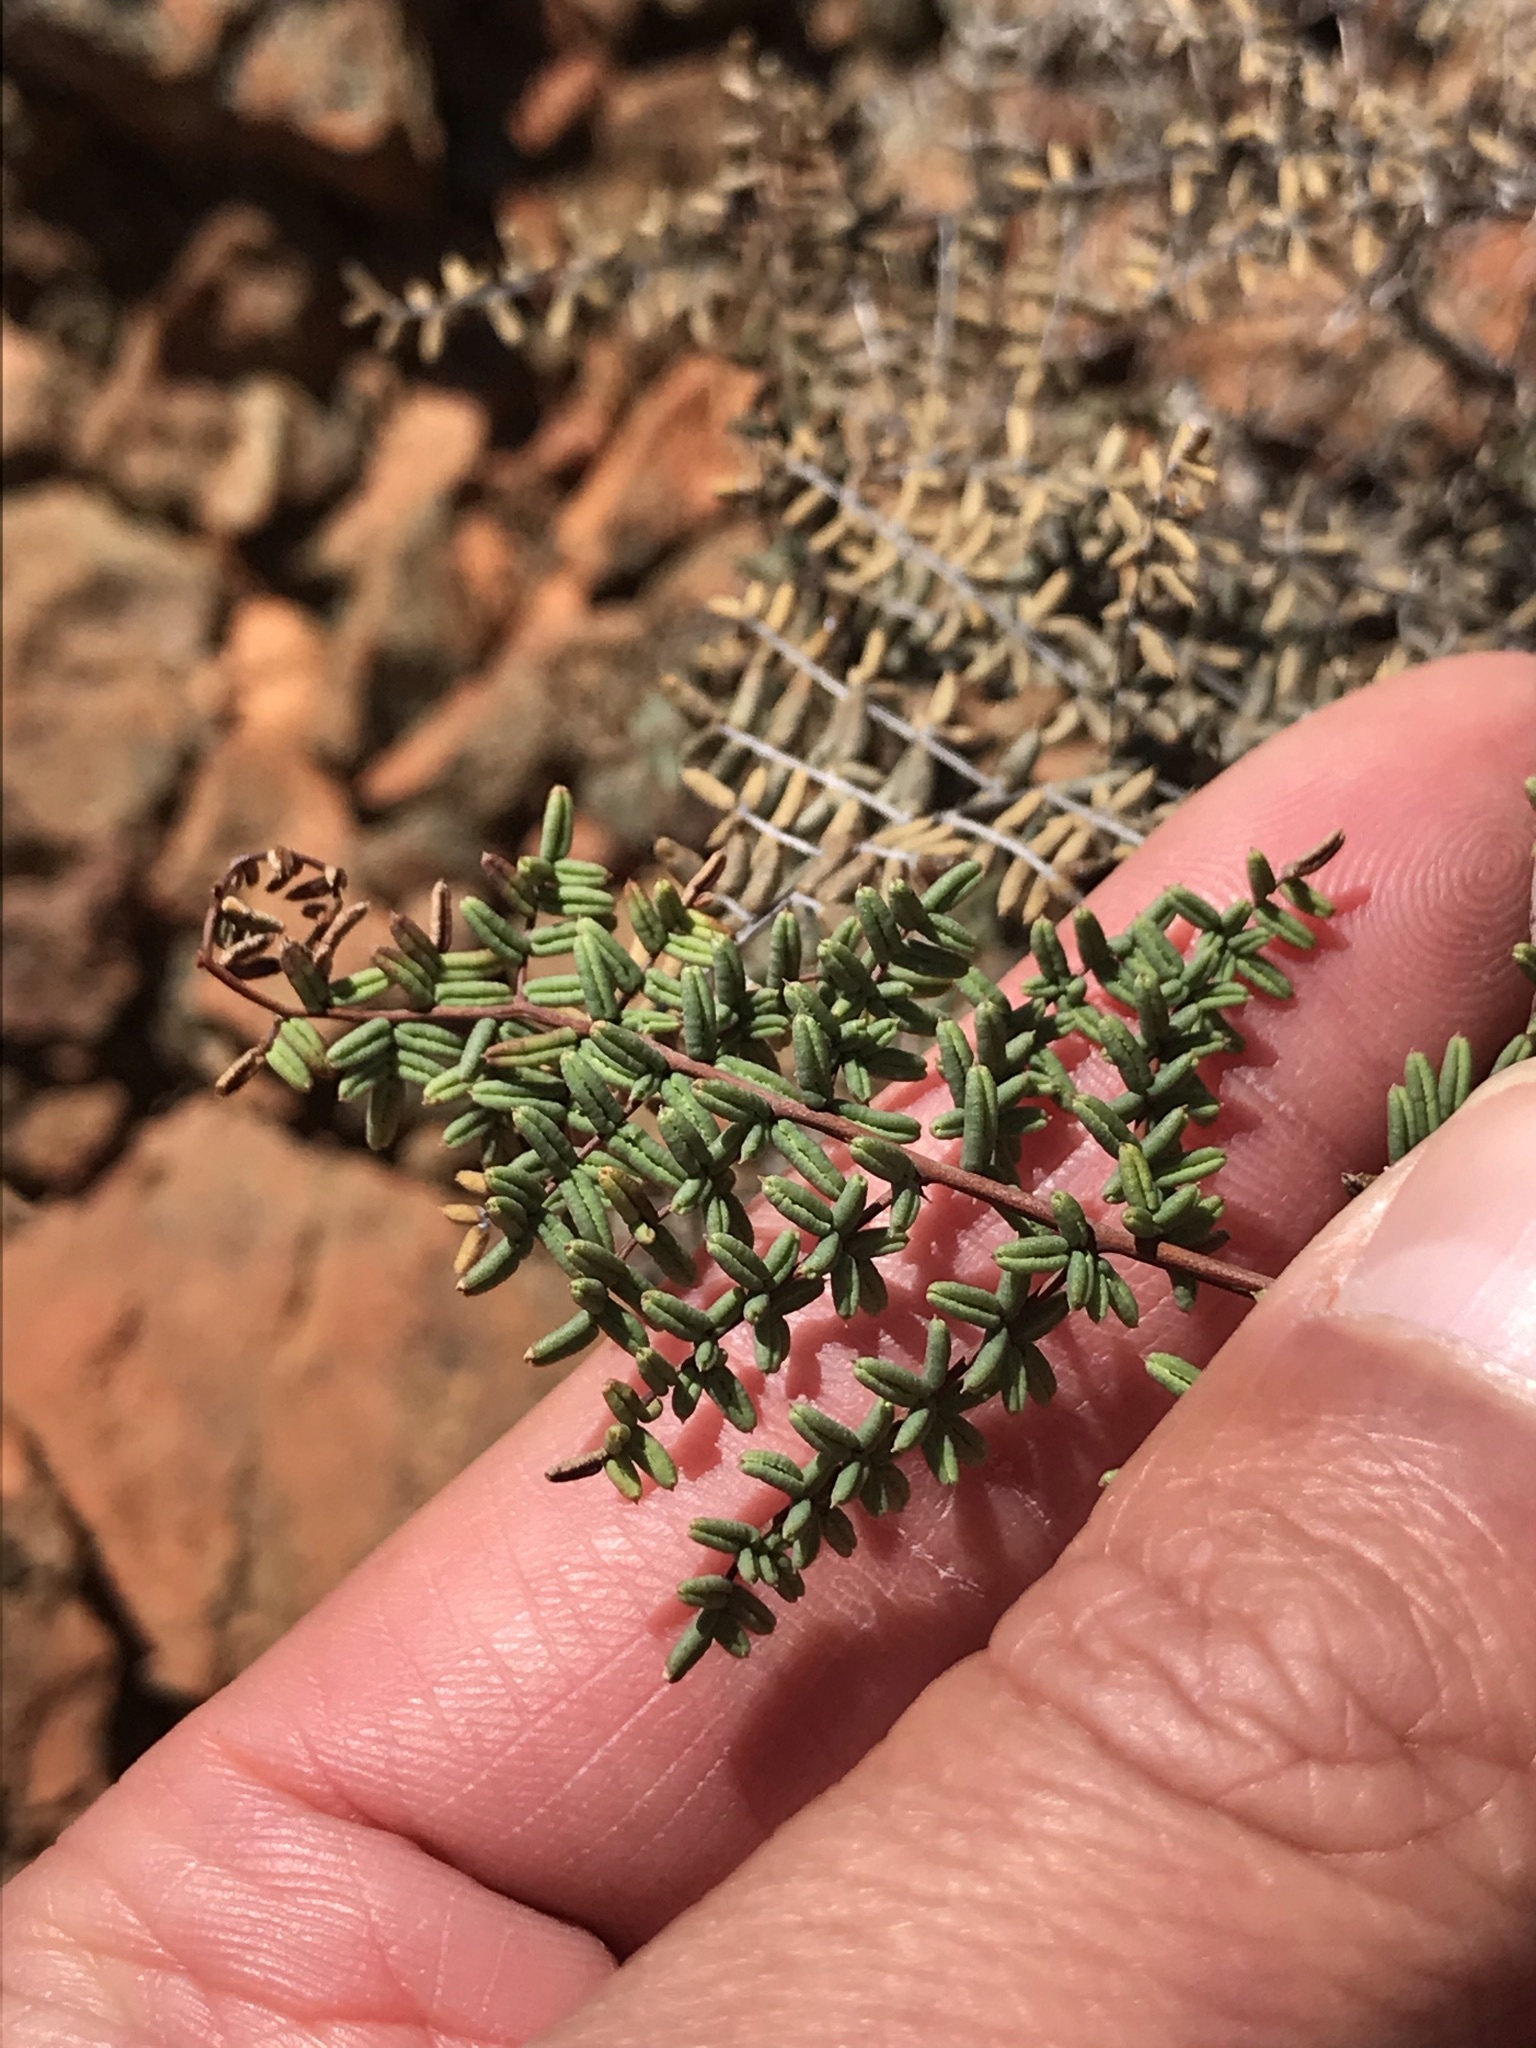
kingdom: Plantae
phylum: Tracheophyta
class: Polypodiopsida
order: Polypodiales
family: Pteridaceae
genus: Pellaea
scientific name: Pellaea mucronata
